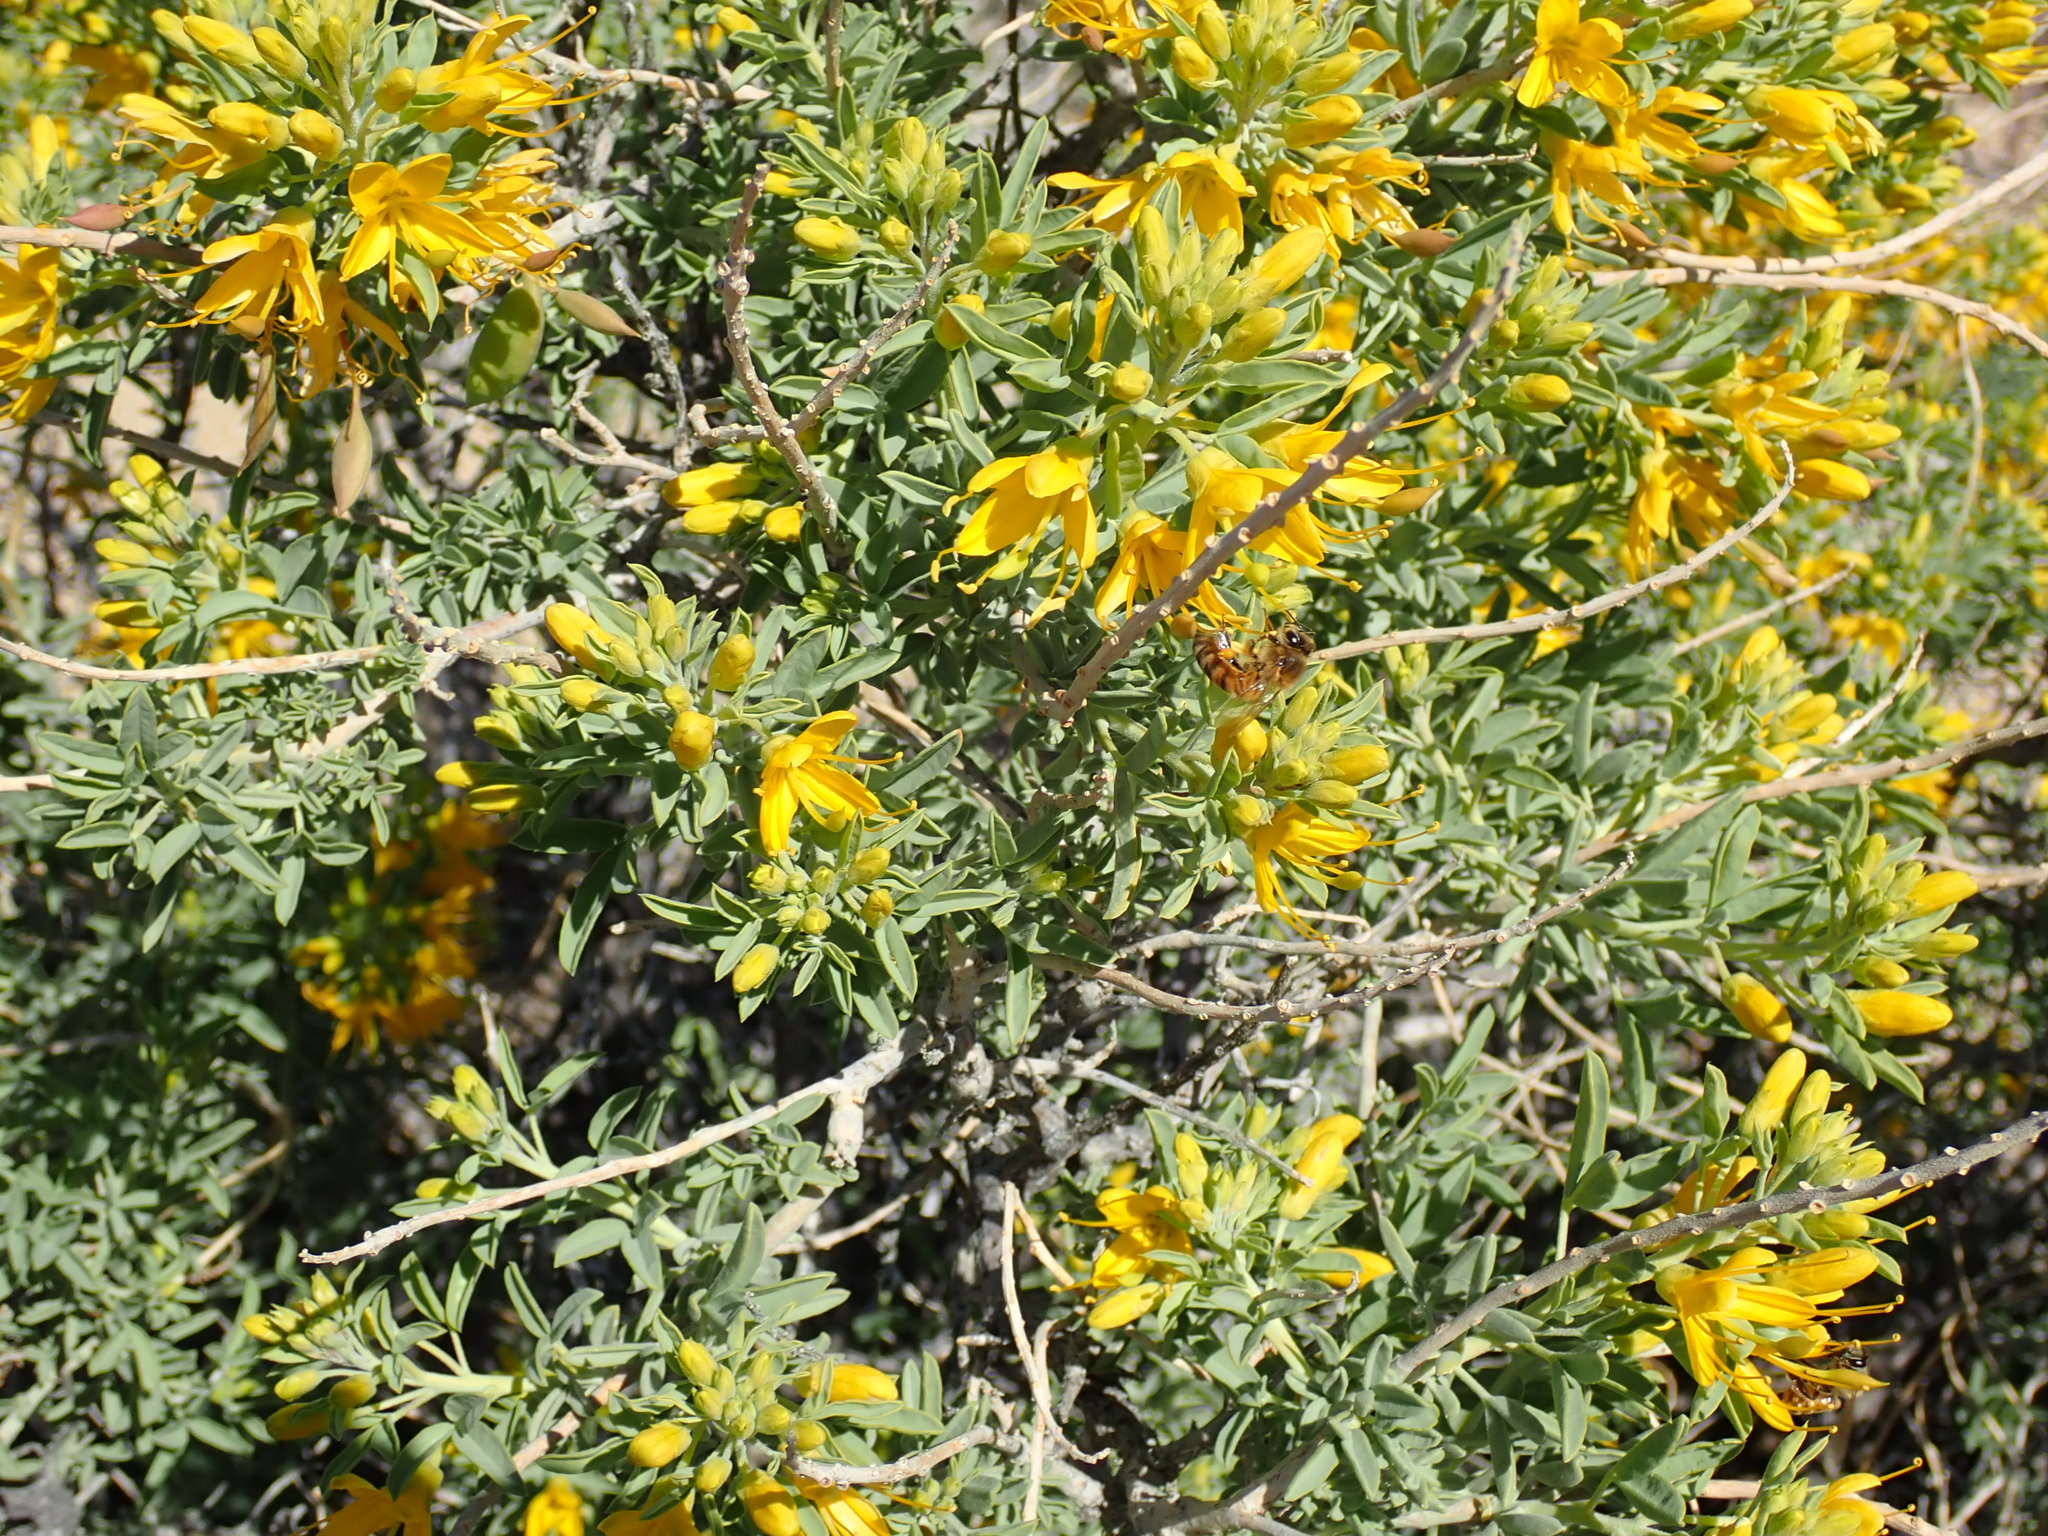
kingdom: Plantae
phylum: Tracheophyta
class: Magnoliopsida
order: Brassicales
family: Cleomaceae
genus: Cleomella
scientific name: Cleomella arborea
